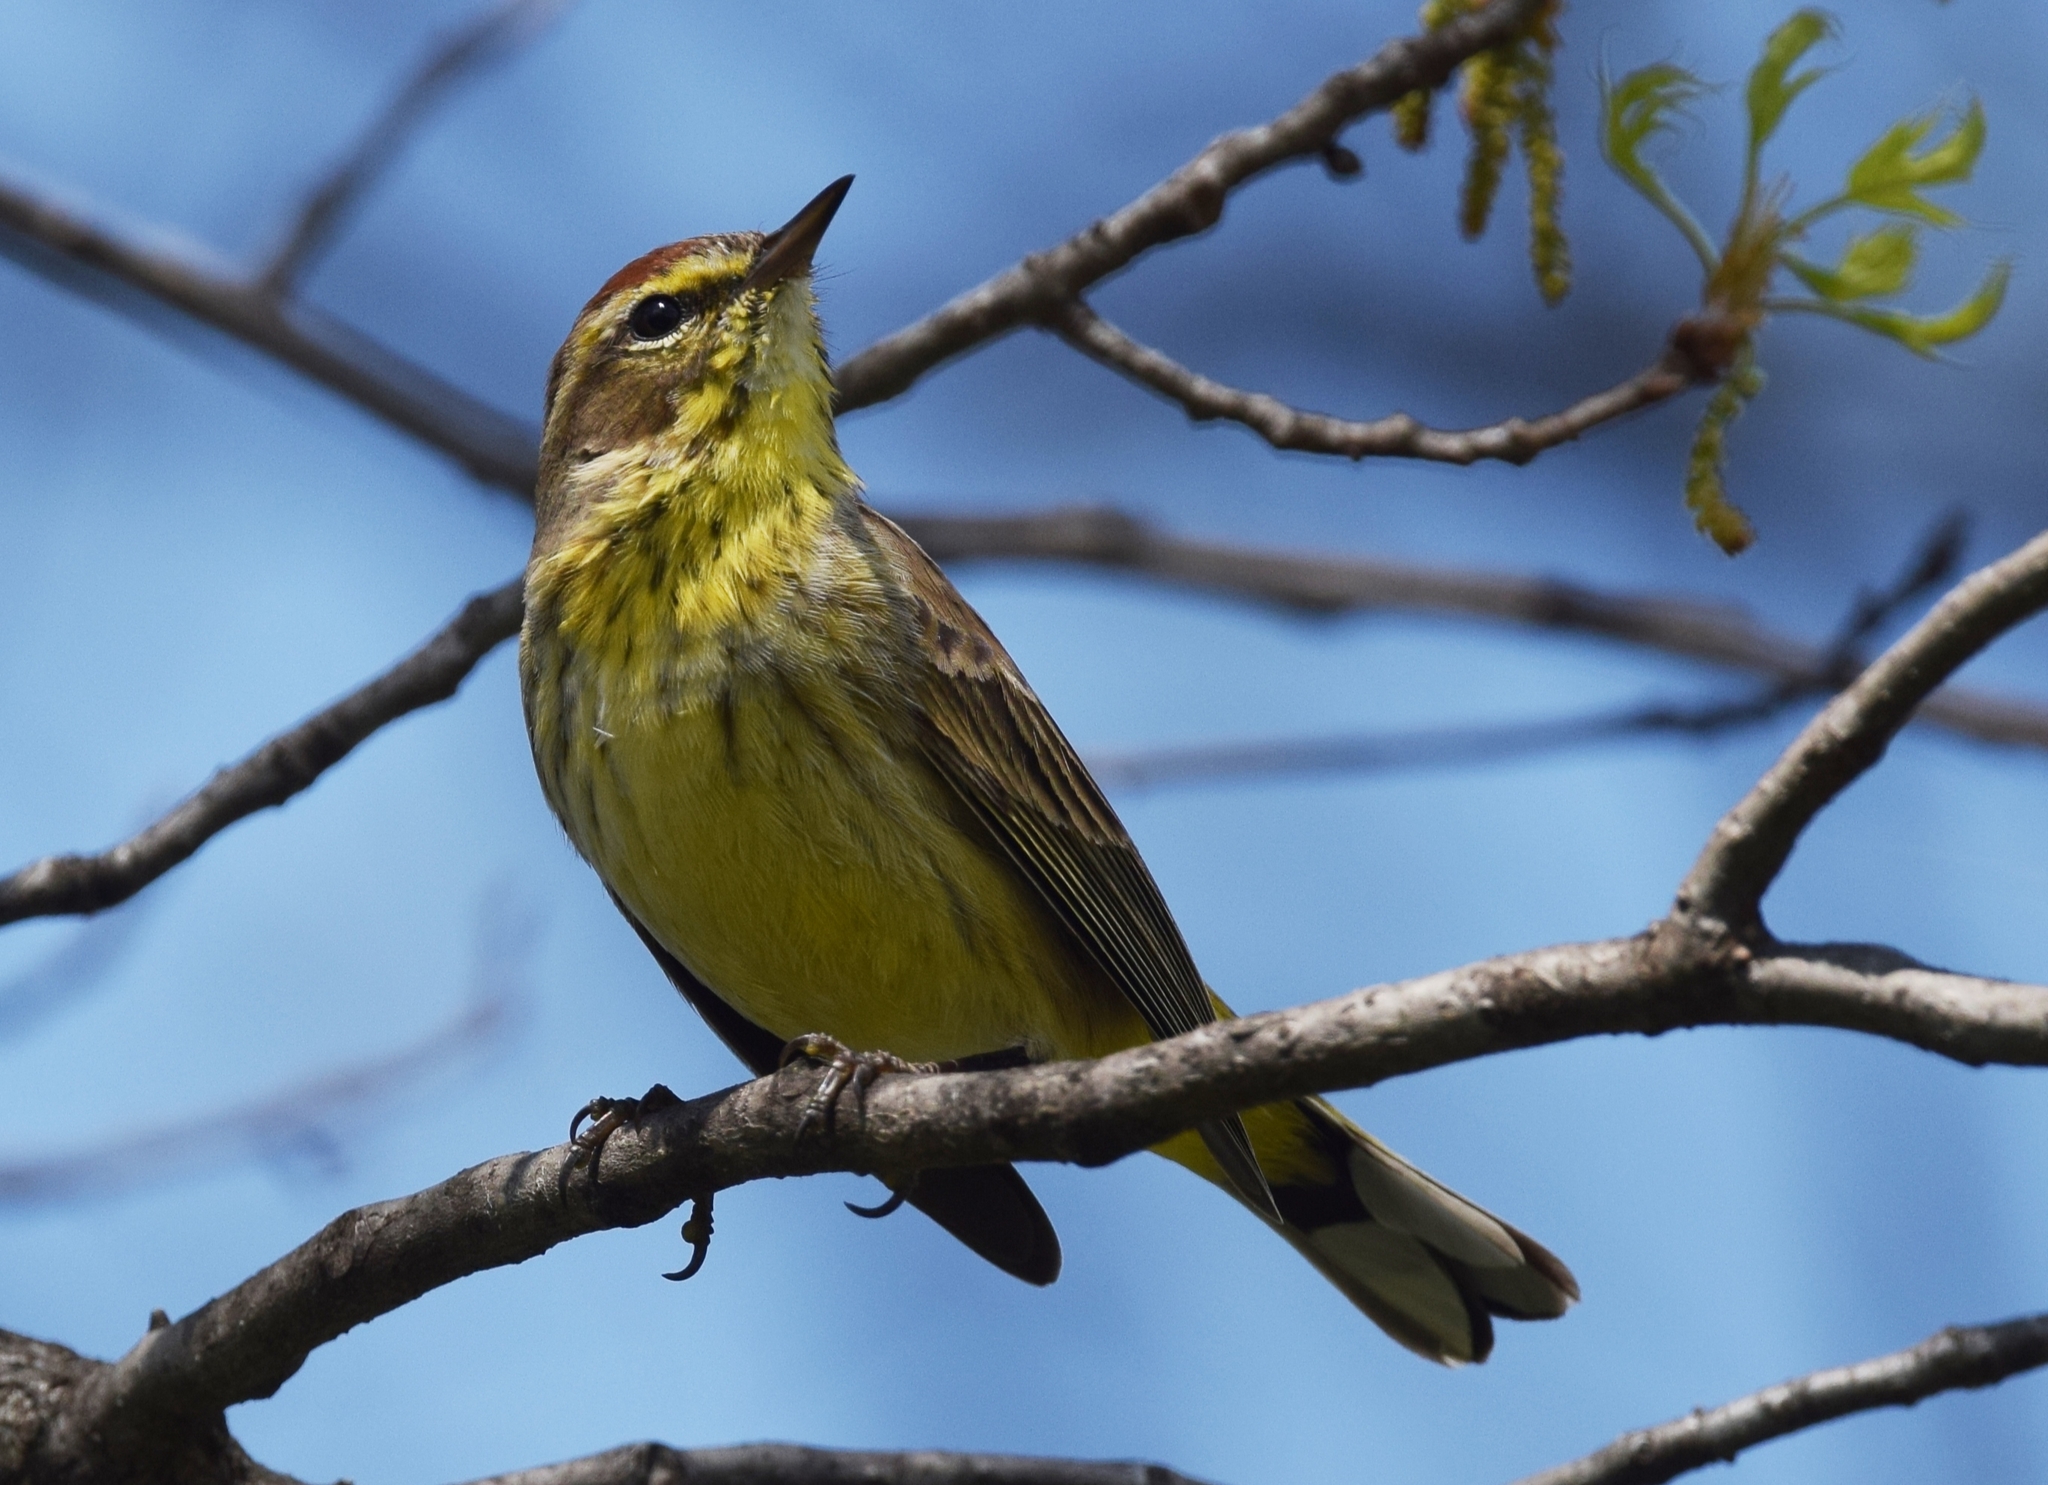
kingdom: Animalia
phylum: Chordata
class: Aves
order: Passeriformes
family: Parulidae
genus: Setophaga
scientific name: Setophaga palmarum
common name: Palm warbler
